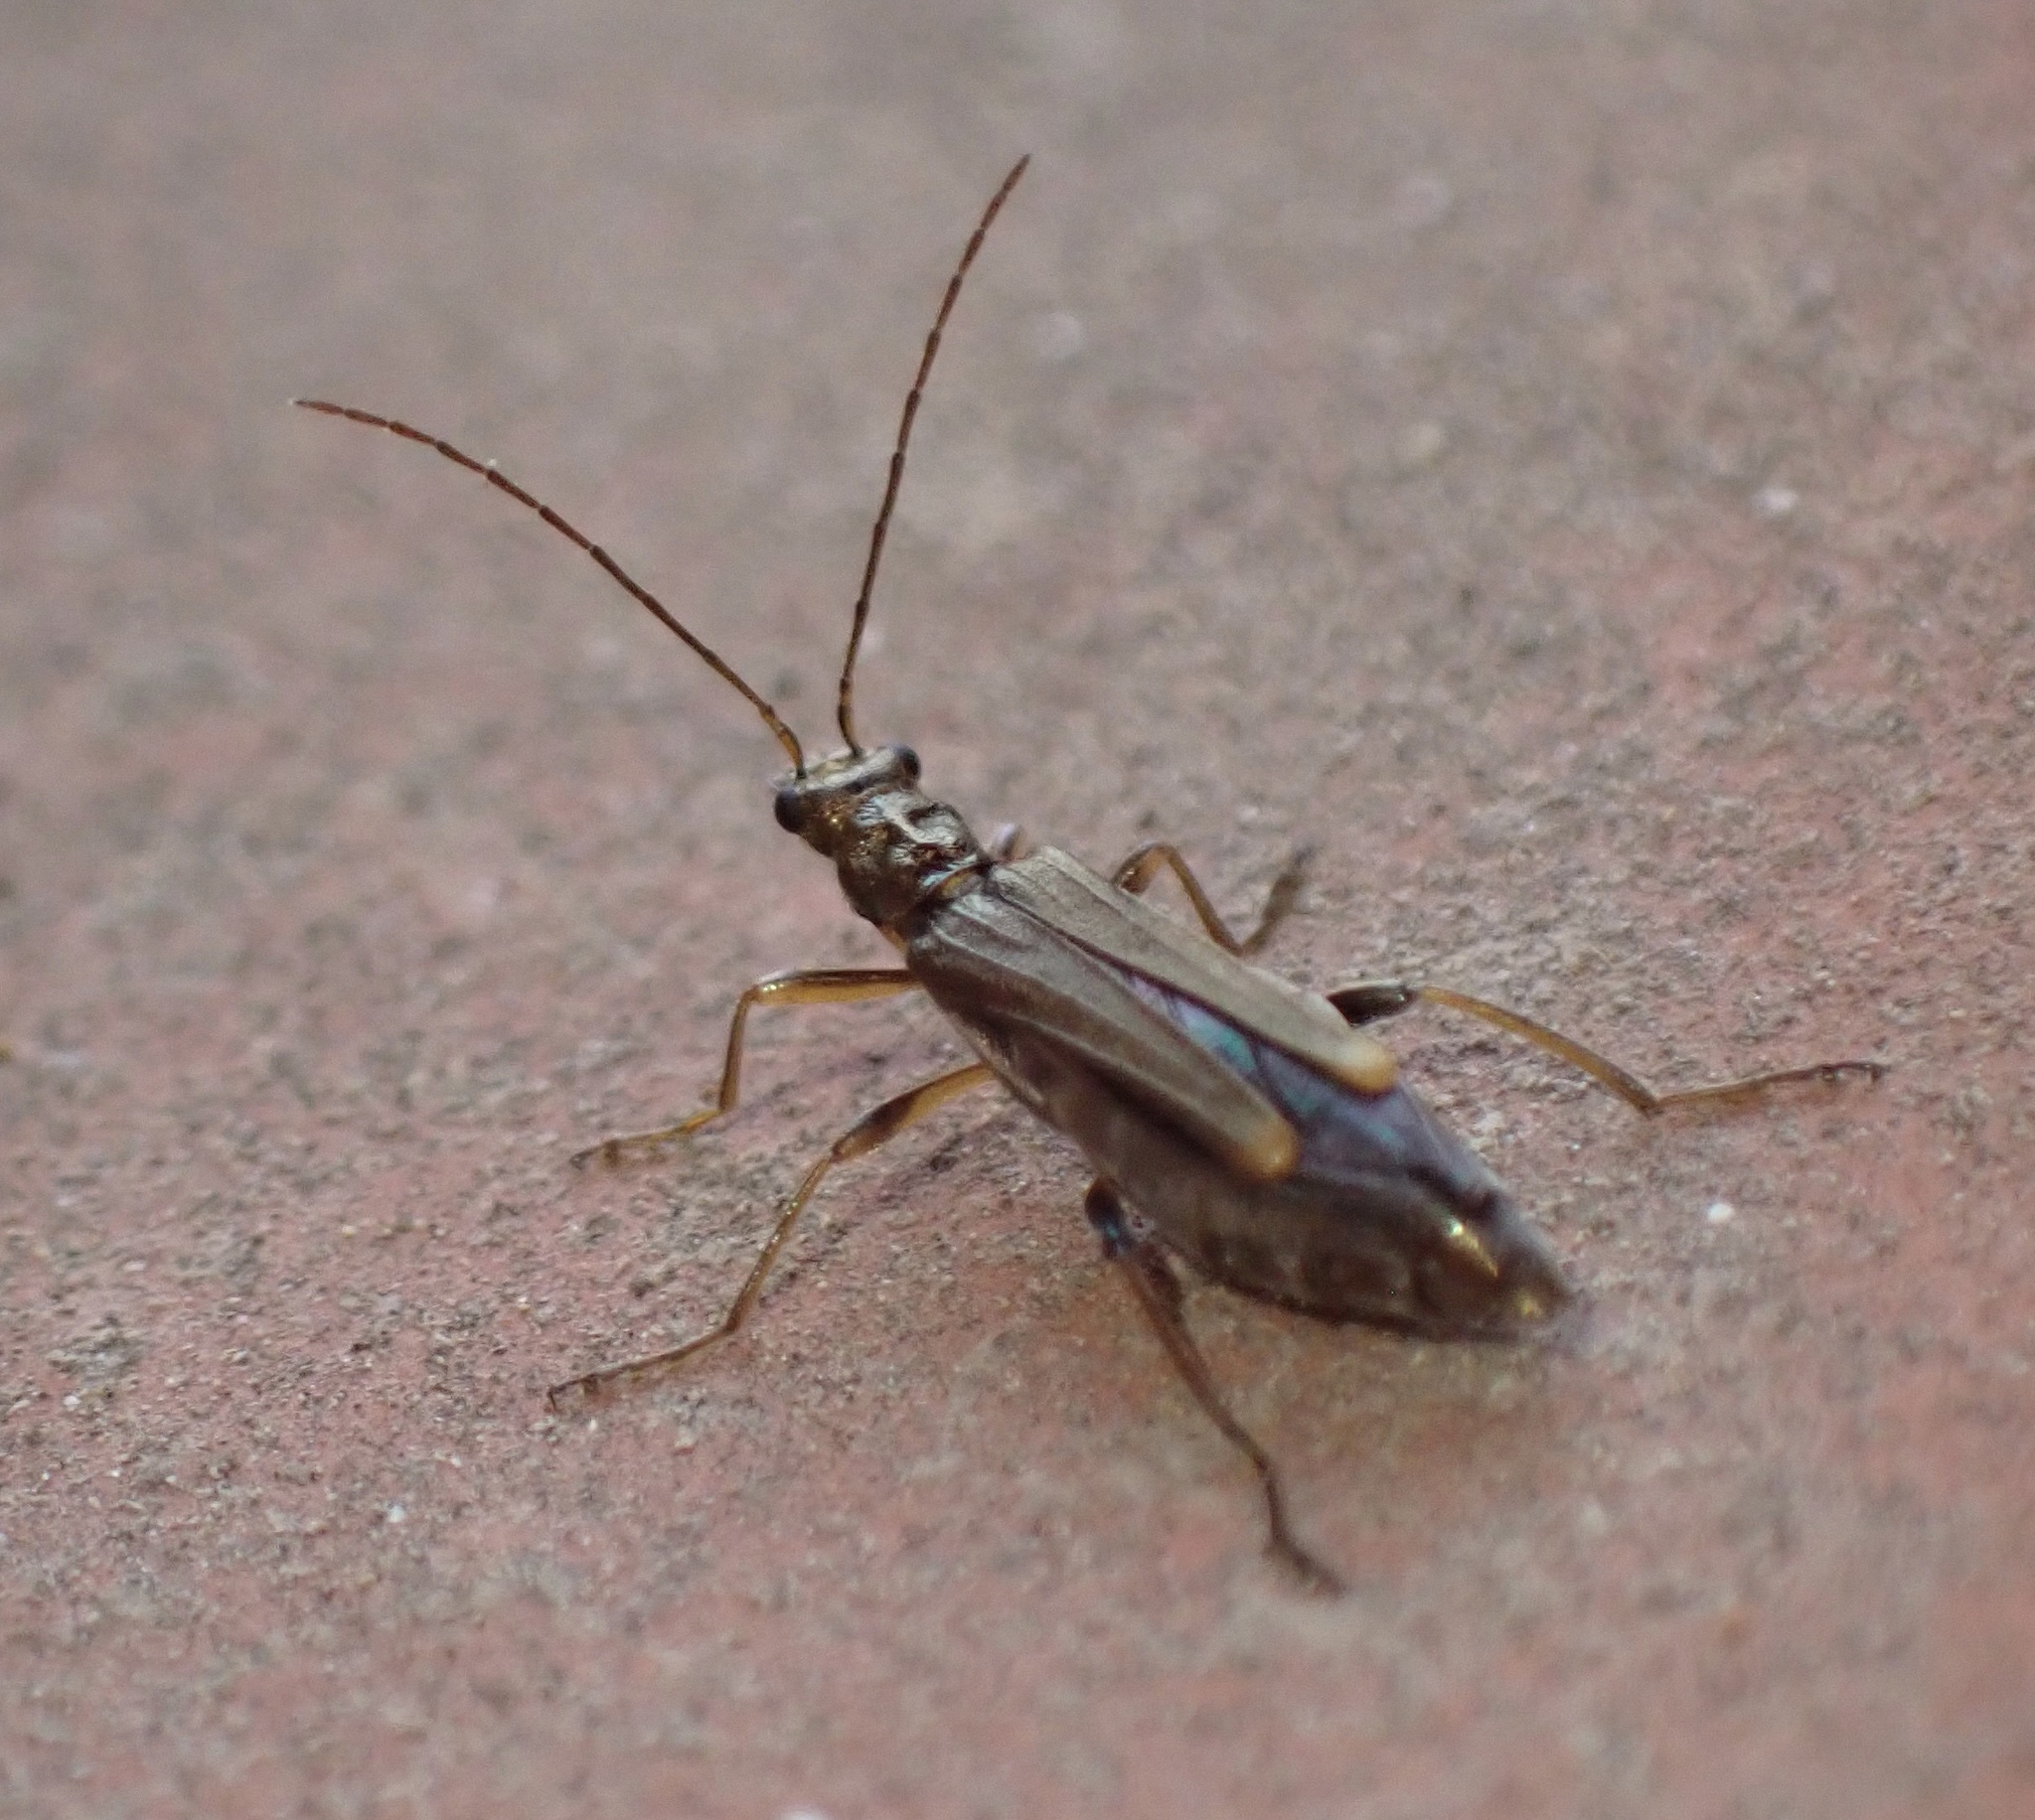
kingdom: Animalia
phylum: Arthropoda
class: Insecta
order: Coleoptera
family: Oedemeridae
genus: Oedemera
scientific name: Oedemera barbara
